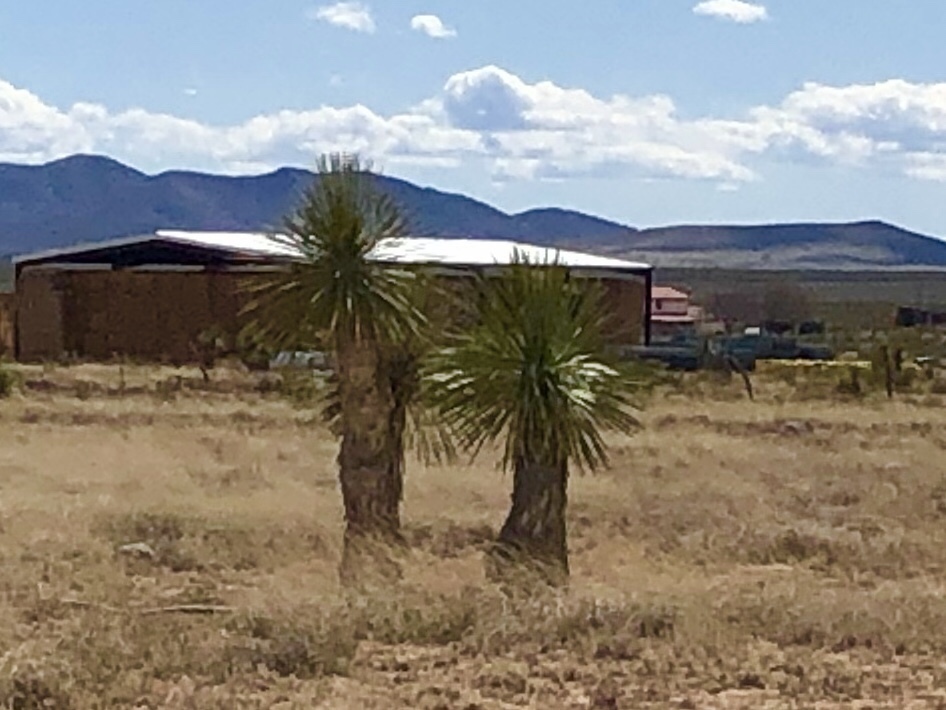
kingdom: Plantae
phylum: Tracheophyta
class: Liliopsida
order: Asparagales
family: Asparagaceae
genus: Yucca
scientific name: Yucca elata
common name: Palmella
